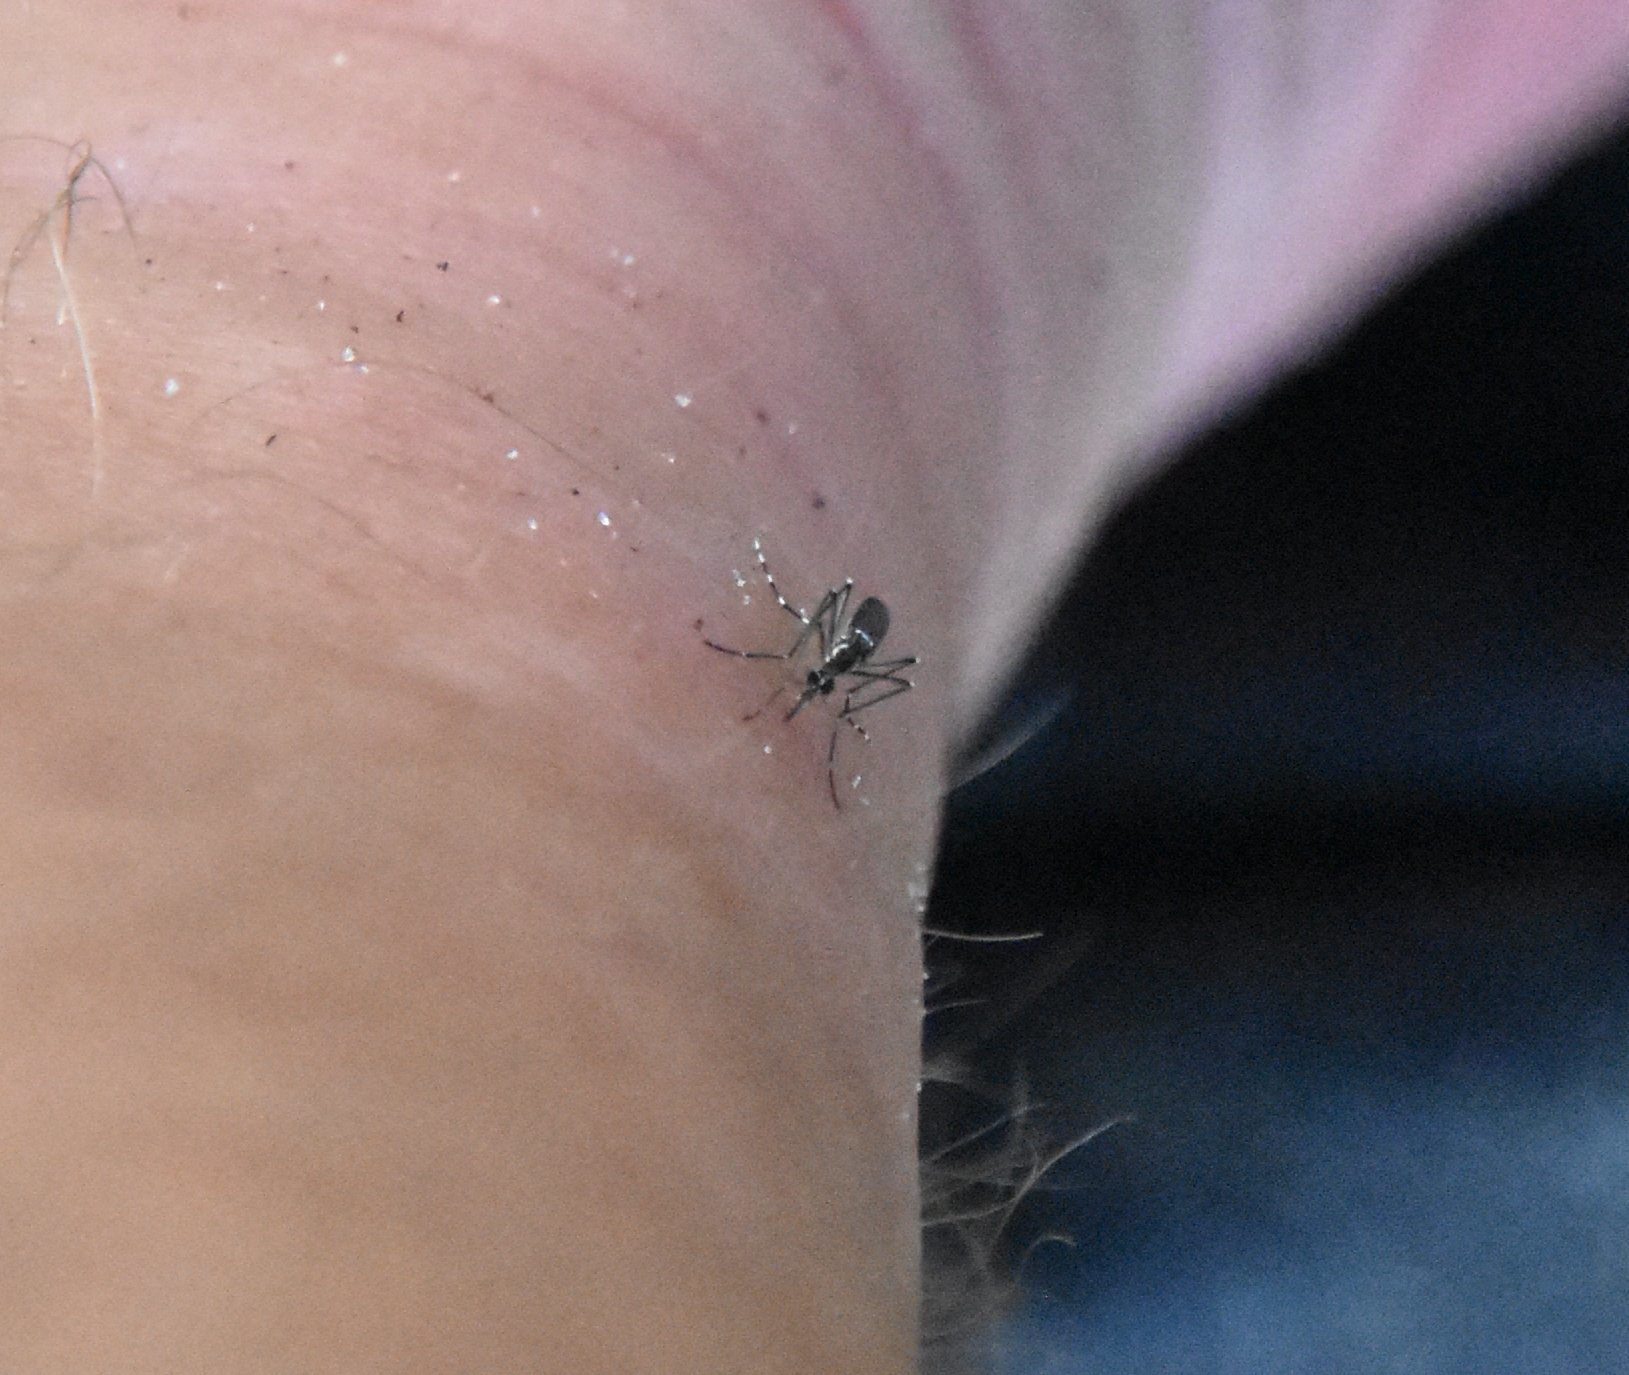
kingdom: Animalia
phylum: Arthropoda
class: Insecta
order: Diptera
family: Culicidae
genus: Aedes
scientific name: Aedes aegypti
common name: Yellow fever mosquito
